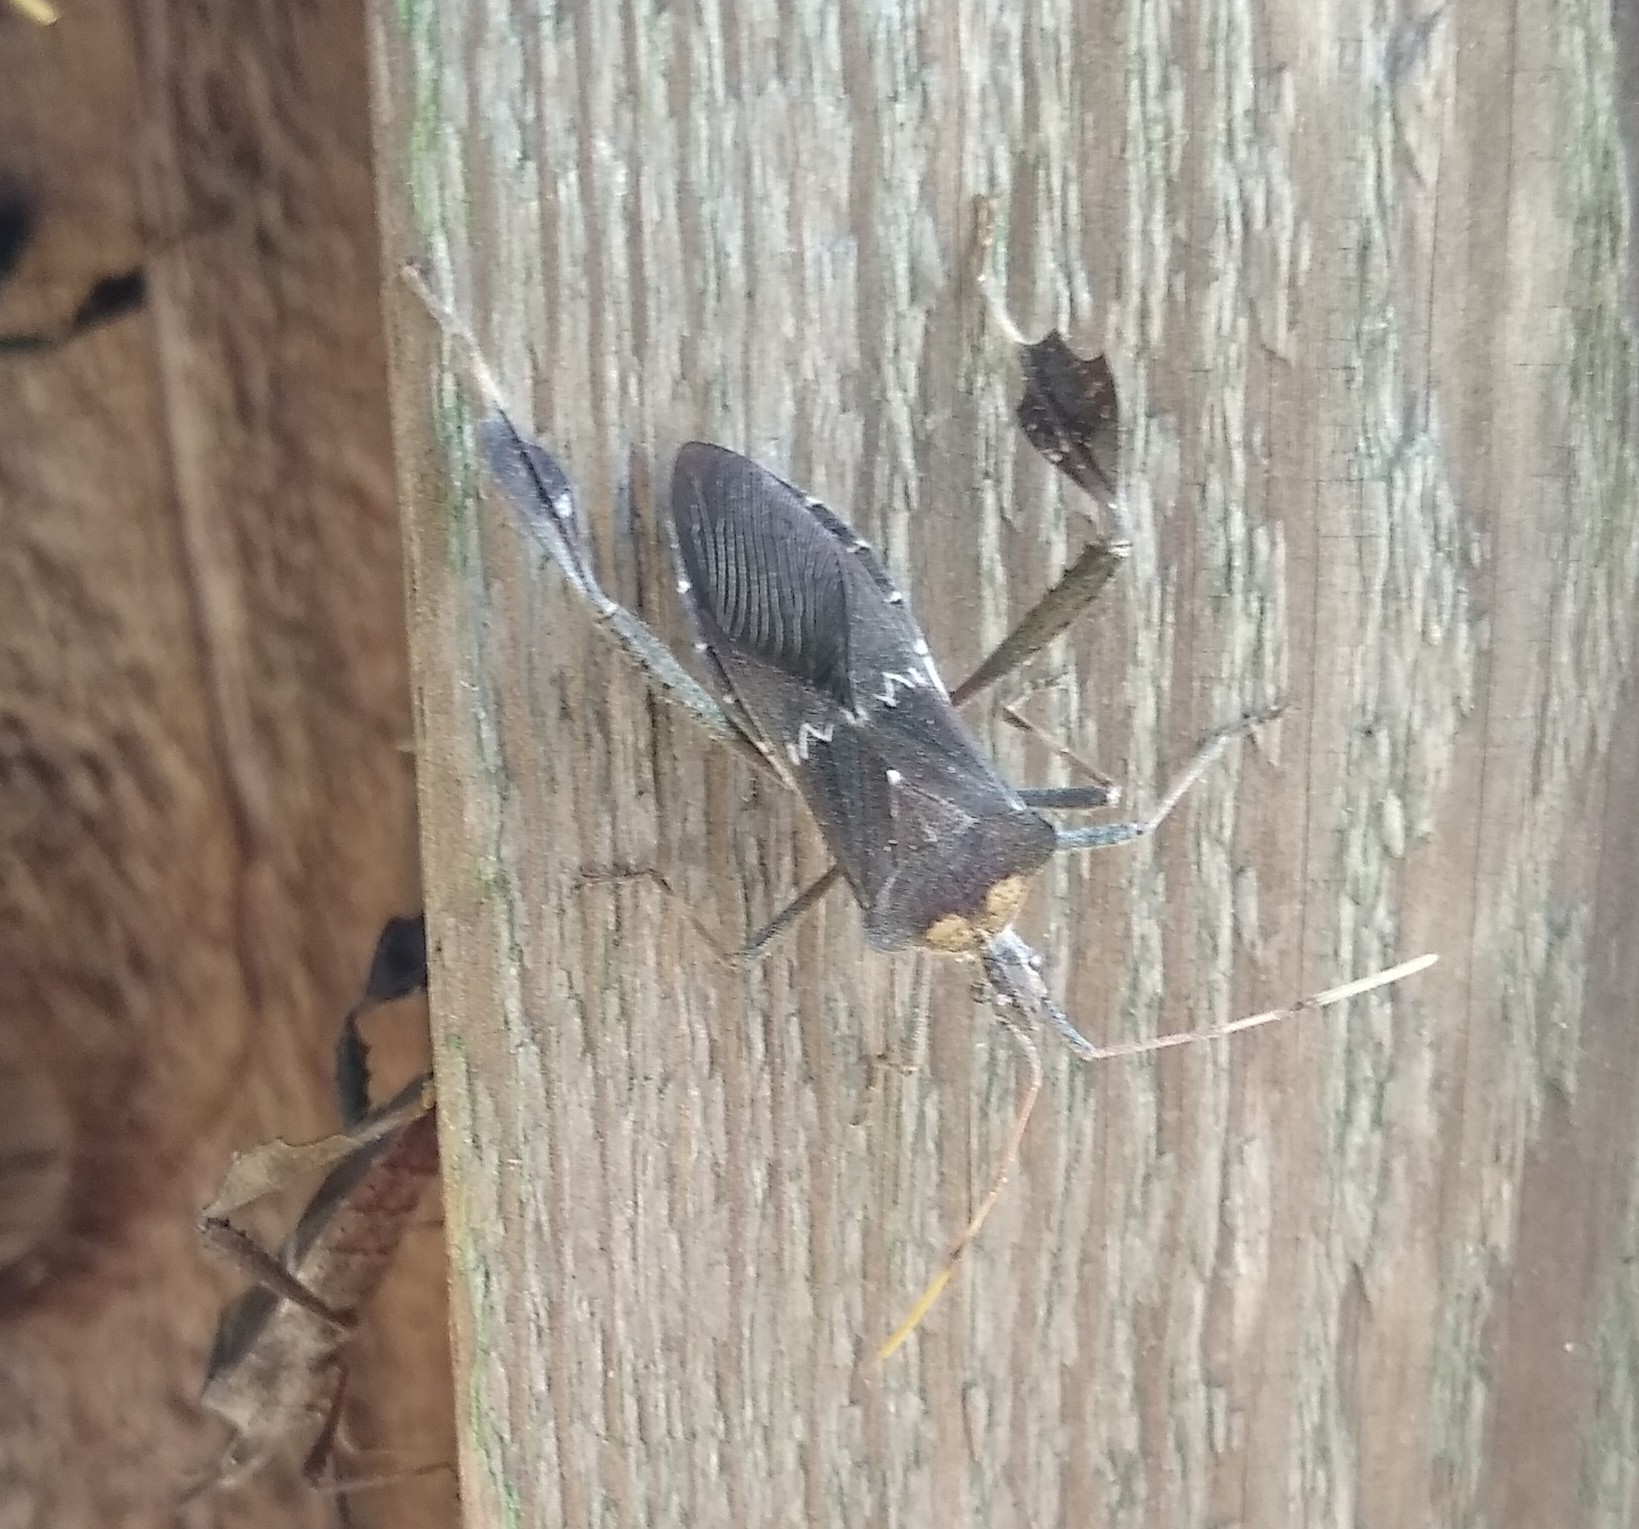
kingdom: Animalia
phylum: Arthropoda
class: Insecta
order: Hemiptera
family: Coreidae
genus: Leptoglossus
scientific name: Leptoglossus zonatus
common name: Large-legged bug
